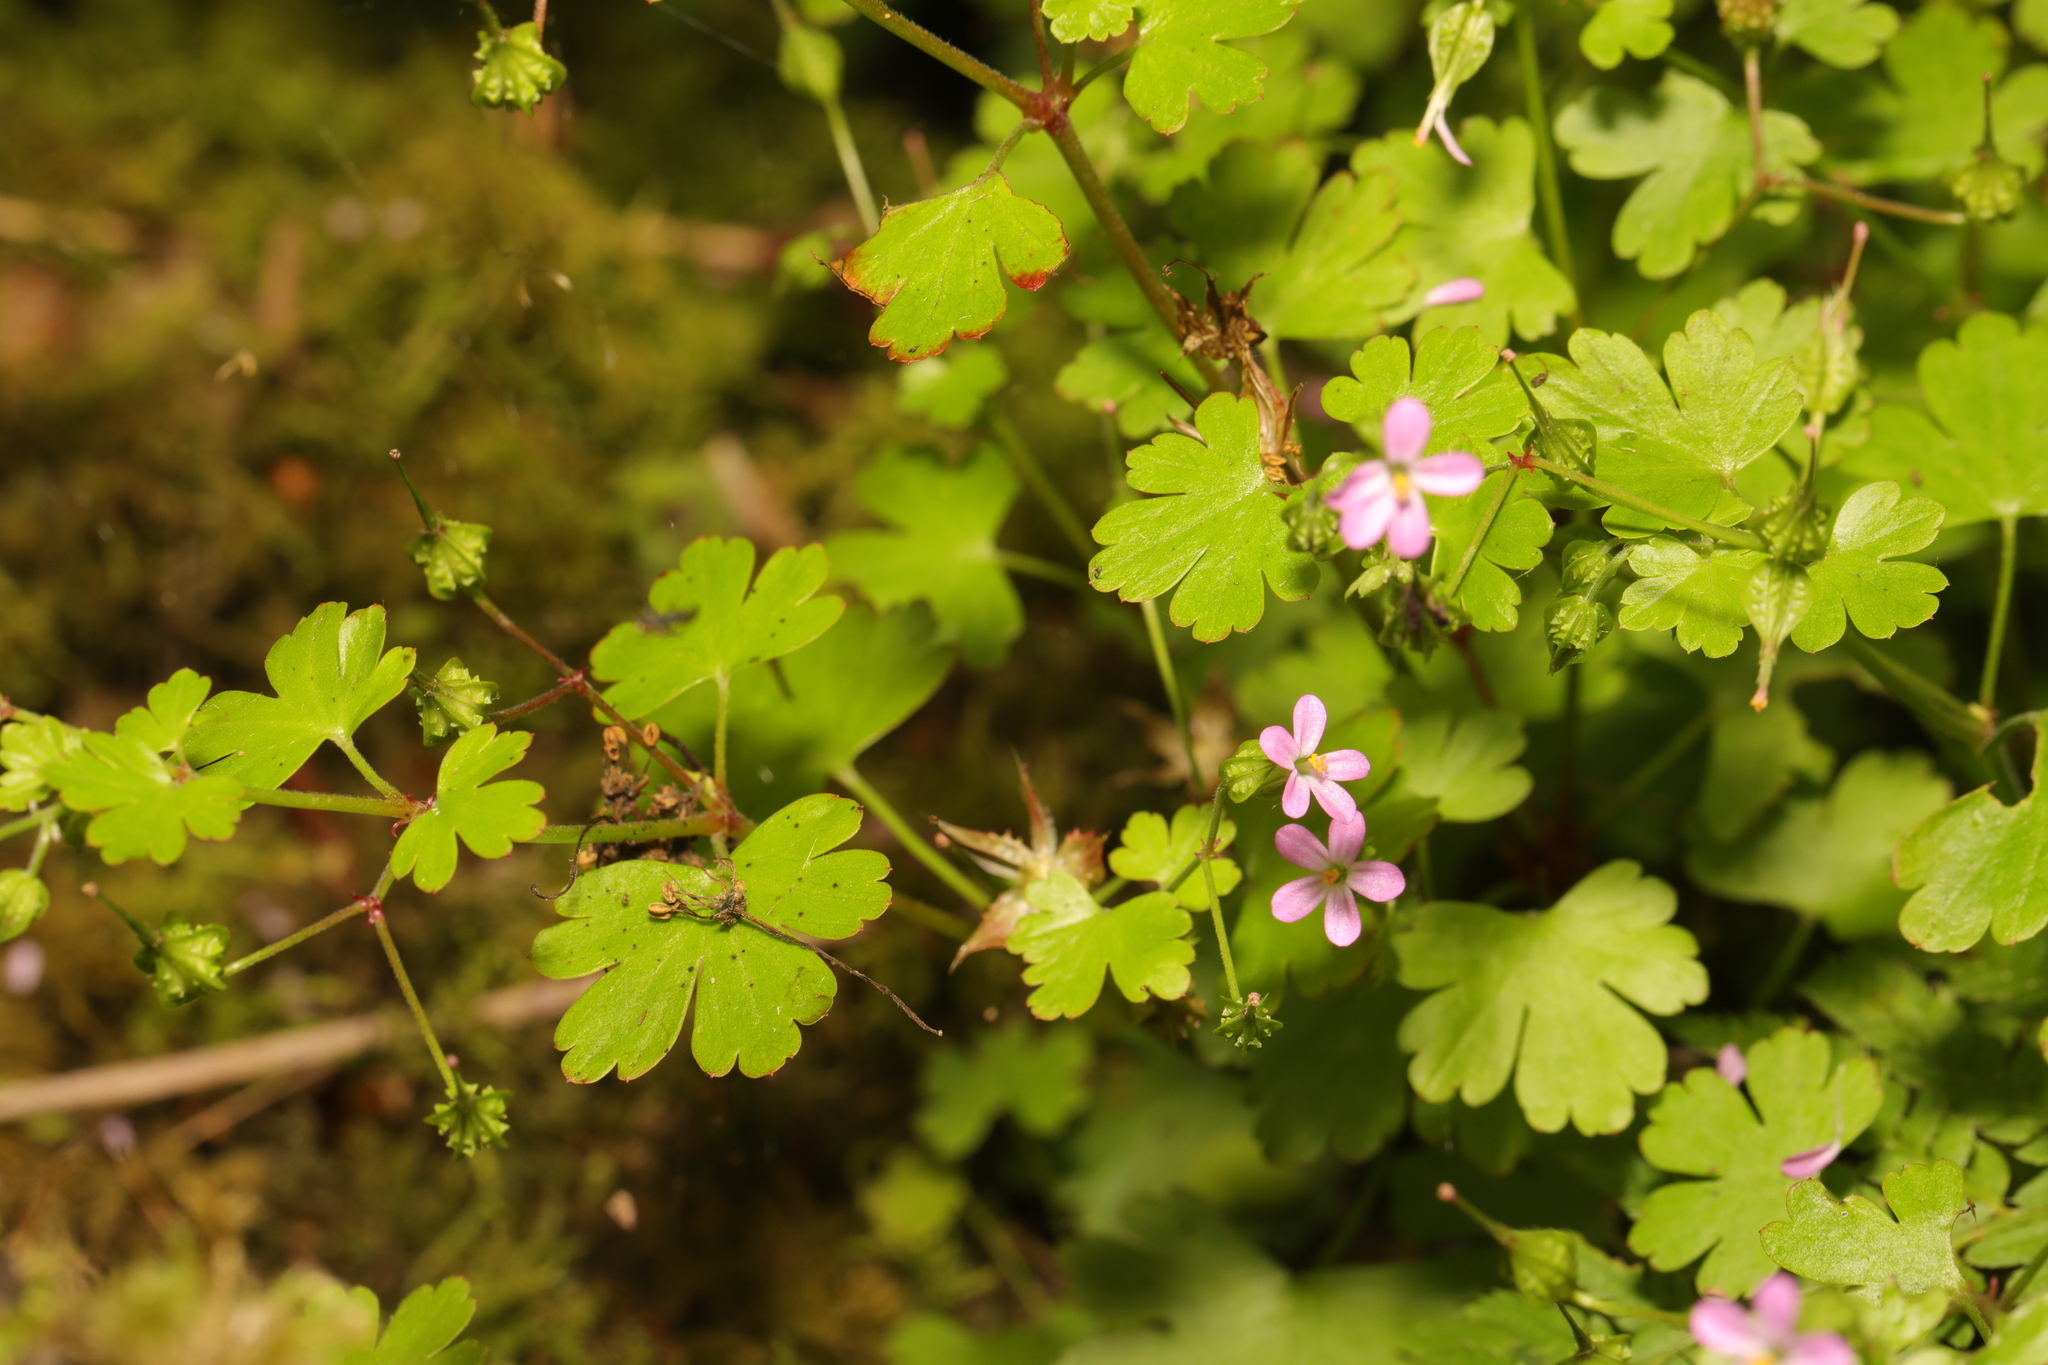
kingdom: Plantae
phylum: Tracheophyta
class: Magnoliopsida
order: Geraniales
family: Geraniaceae
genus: Geranium
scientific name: Geranium lucidum
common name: Shining crane's-bill
